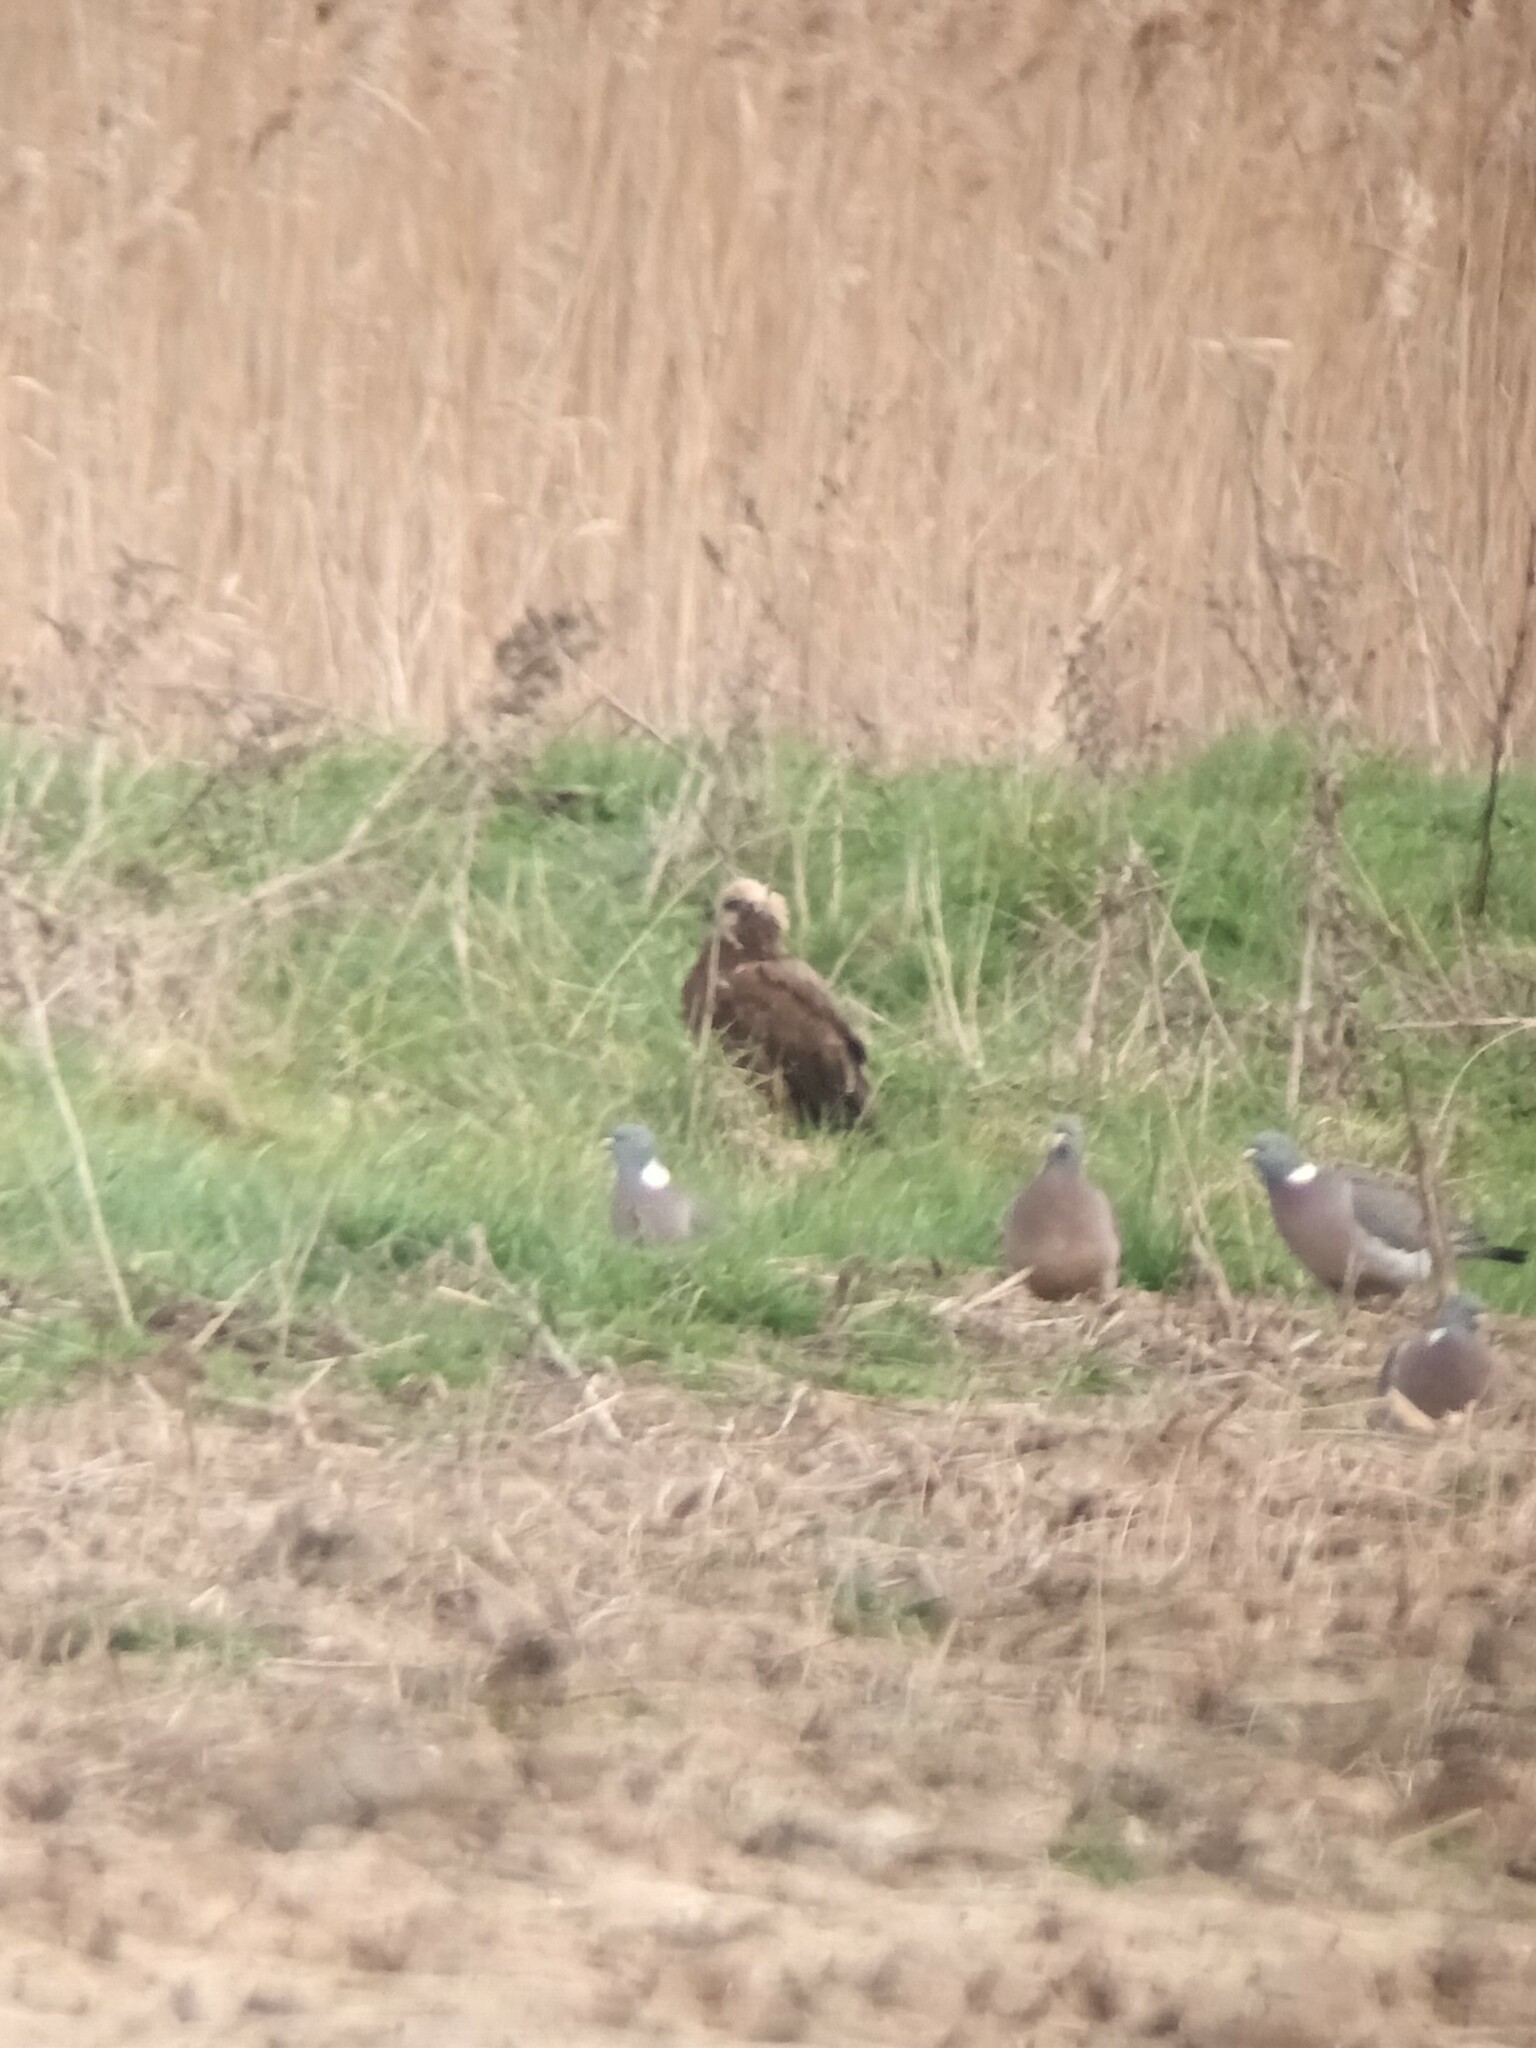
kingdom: Animalia
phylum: Chordata
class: Aves
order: Accipitriformes
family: Accipitridae
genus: Circus
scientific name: Circus aeruginosus
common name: Western marsh harrier
